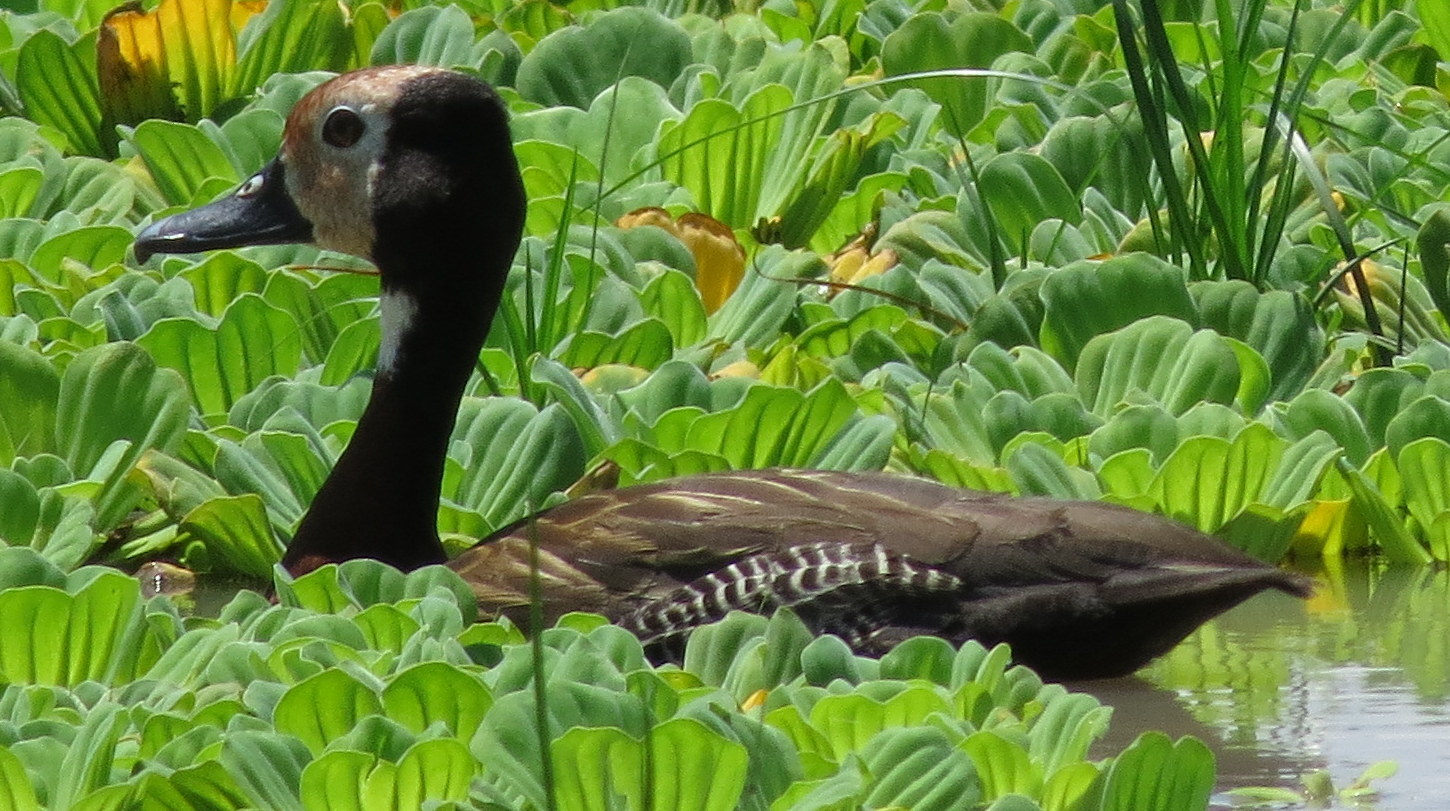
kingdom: Animalia
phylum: Chordata
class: Aves
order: Anseriformes
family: Anatidae
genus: Dendrocygna
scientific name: Dendrocygna viduata
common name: White-faced whistling duck
